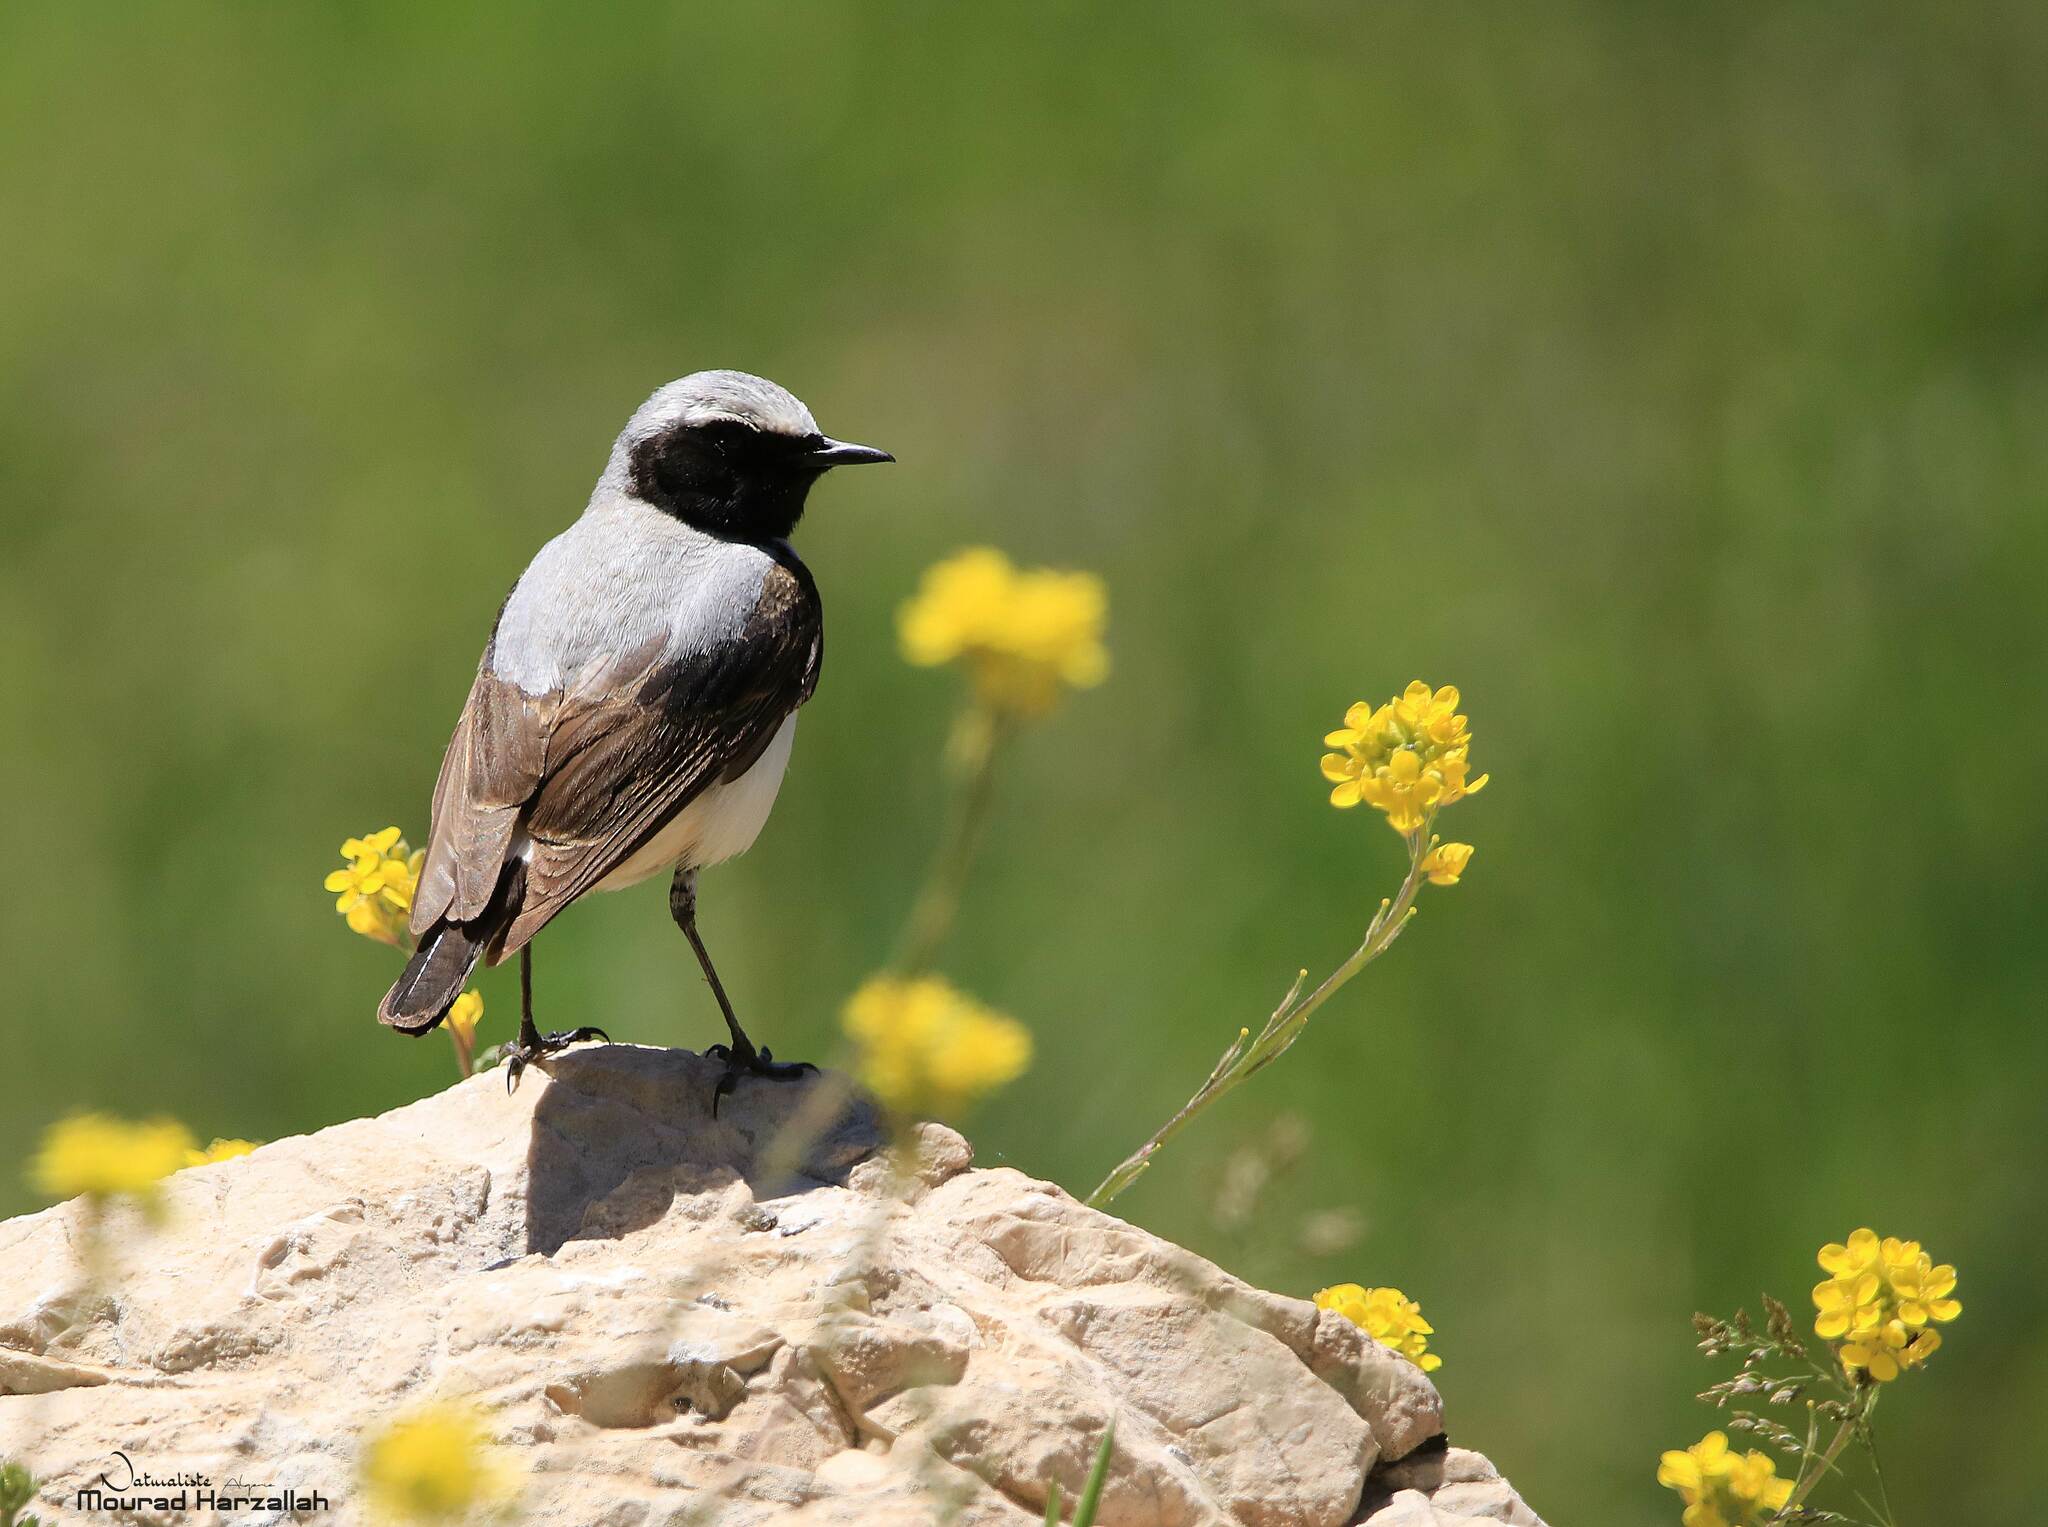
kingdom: Animalia
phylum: Chordata
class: Aves
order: Passeriformes
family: Muscicapidae
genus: Oenanthe
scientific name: Oenanthe oenanthe
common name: Northern wheatear
